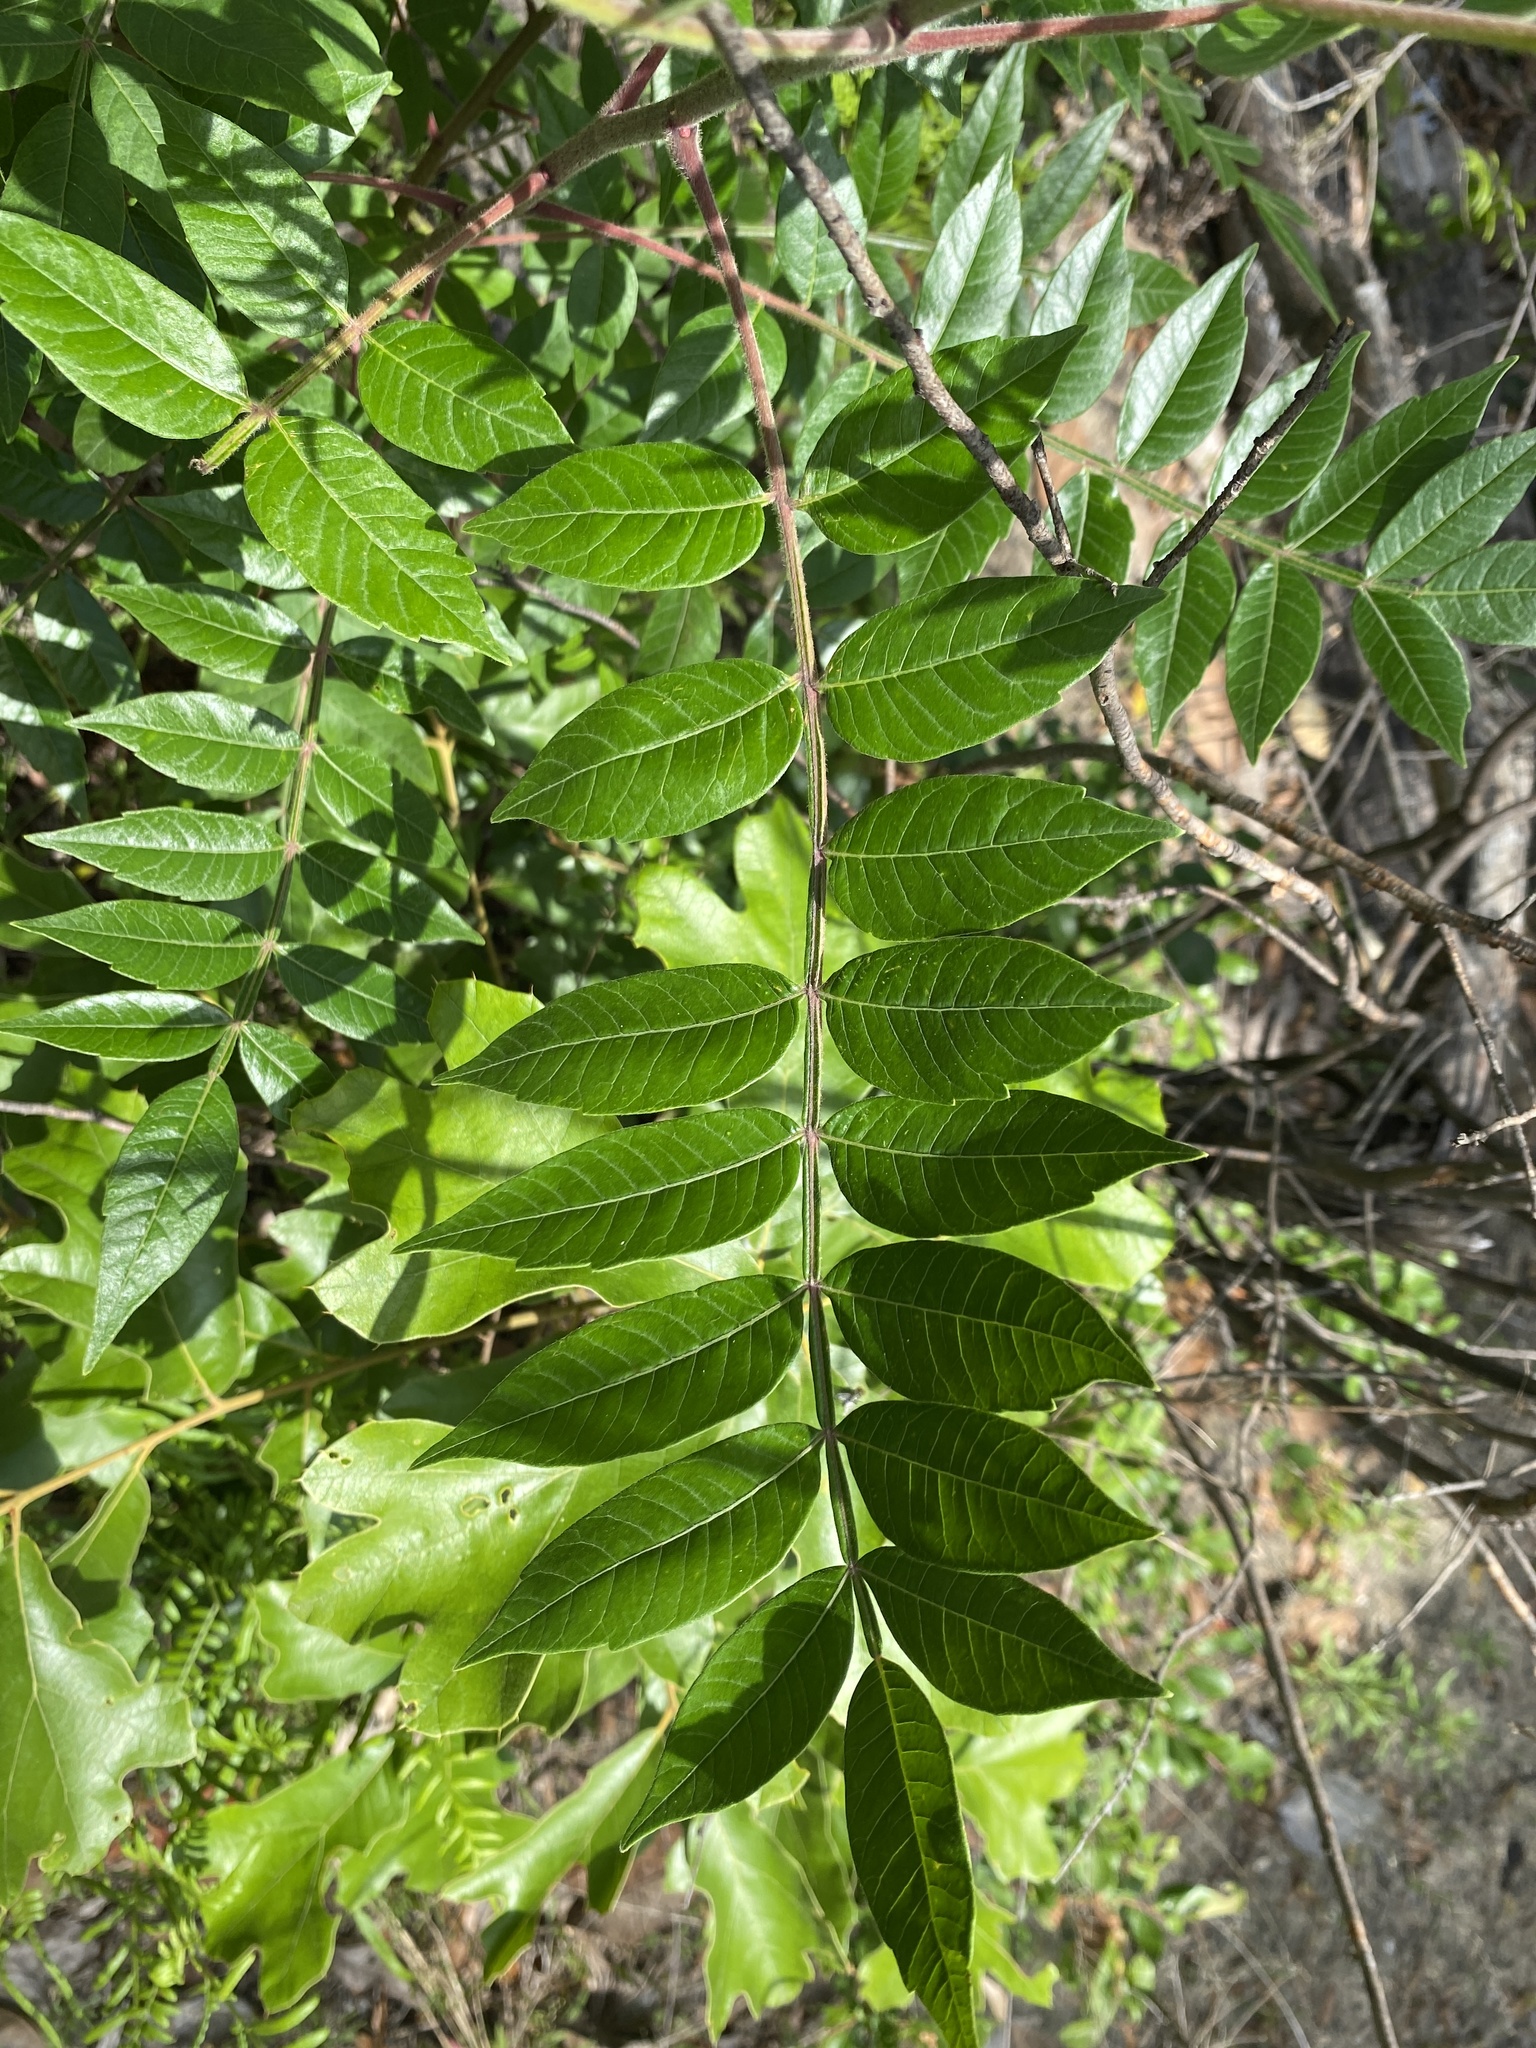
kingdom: Plantae
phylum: Tracheophyta
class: Magnoliopsida
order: Sapindales
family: Anacardiaceae
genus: Rhus
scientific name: Rhus copallina
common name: Shining sumac
